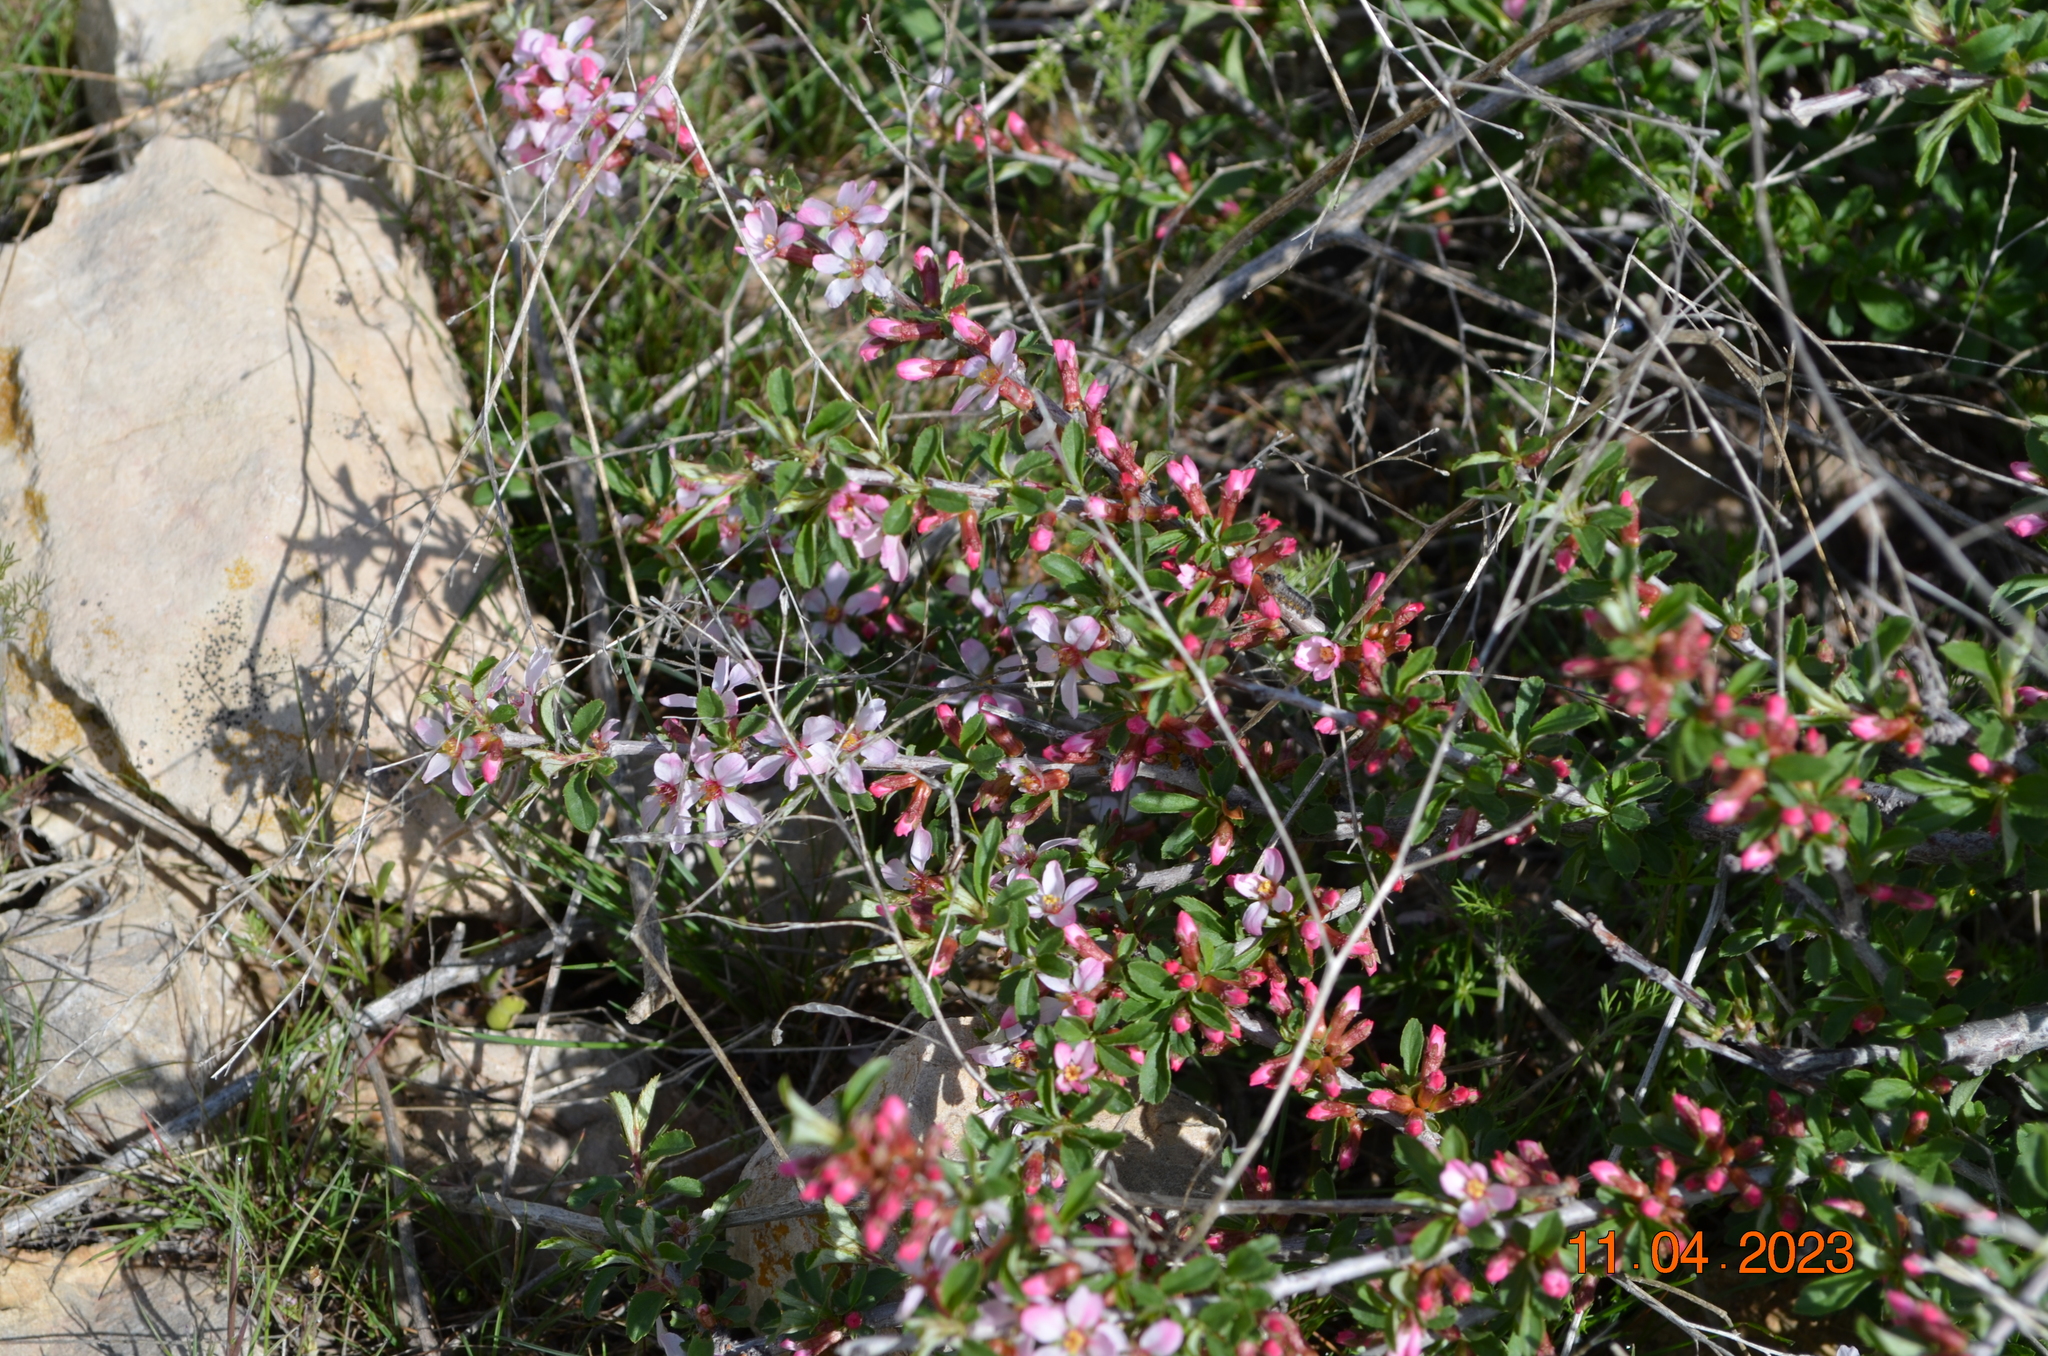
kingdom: Plantae
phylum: Tracheophyta
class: Magnoliopsida
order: Rosales
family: Rosaceae
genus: Prunus
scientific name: Prunus prostrata
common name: Mountain cherry
